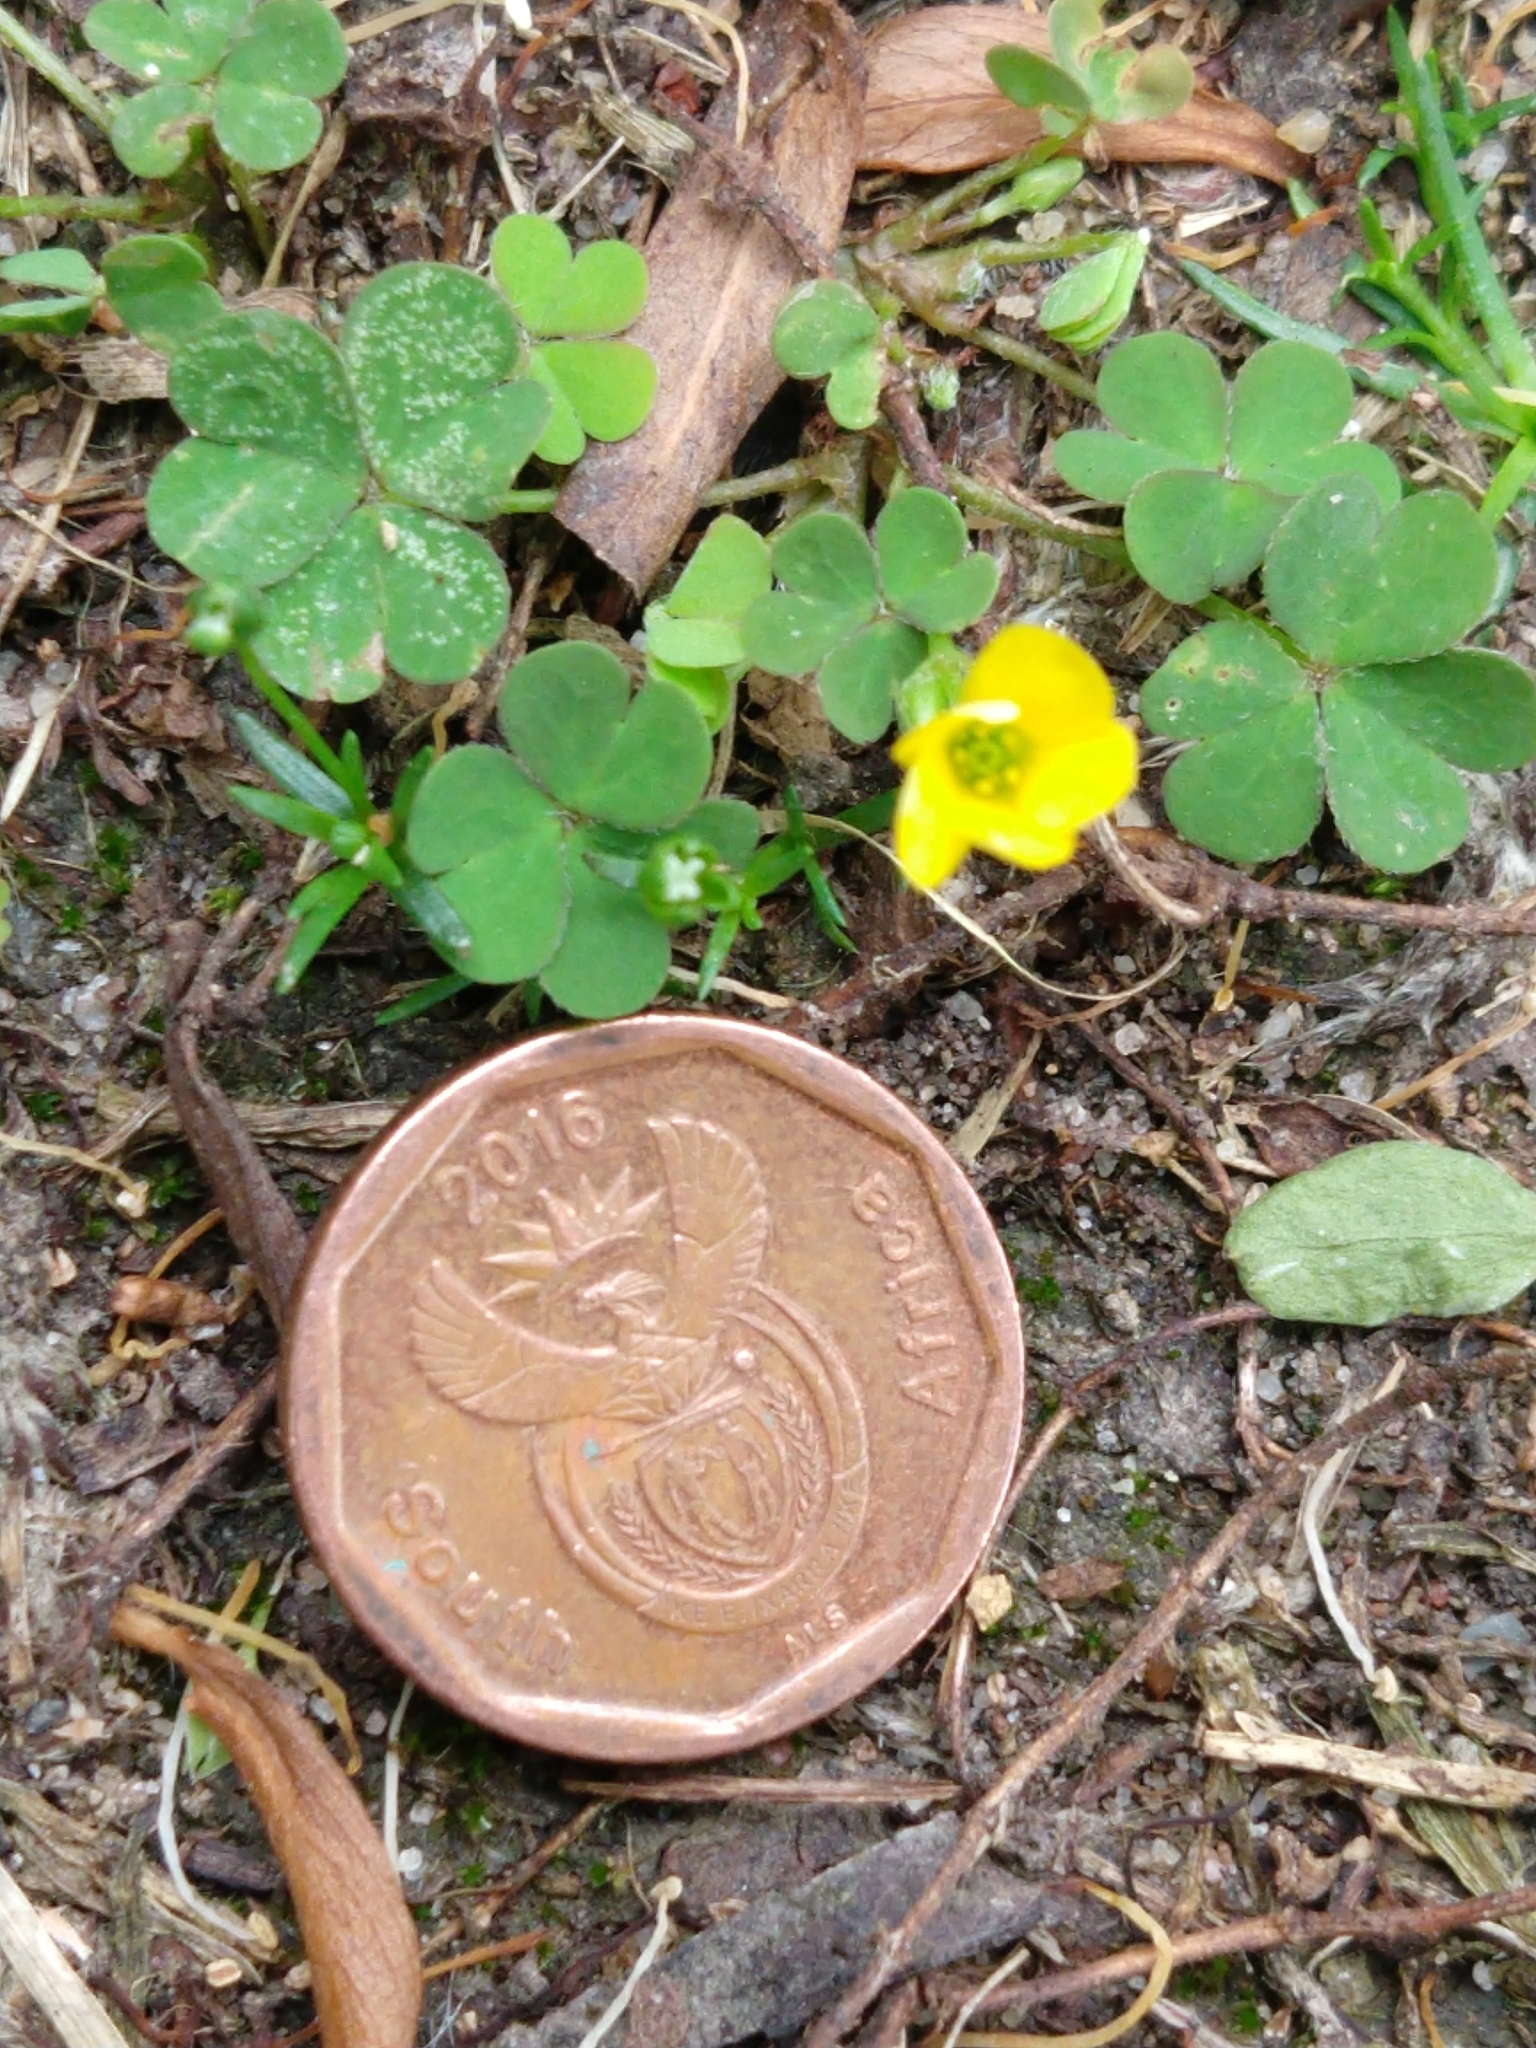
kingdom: Plantae
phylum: Tracheophyta
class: Magnoliopsida
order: Oxalidales
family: Oxalidaceae
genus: Oxalis
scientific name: Oxalis exilis
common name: Least yellow-sorrel
